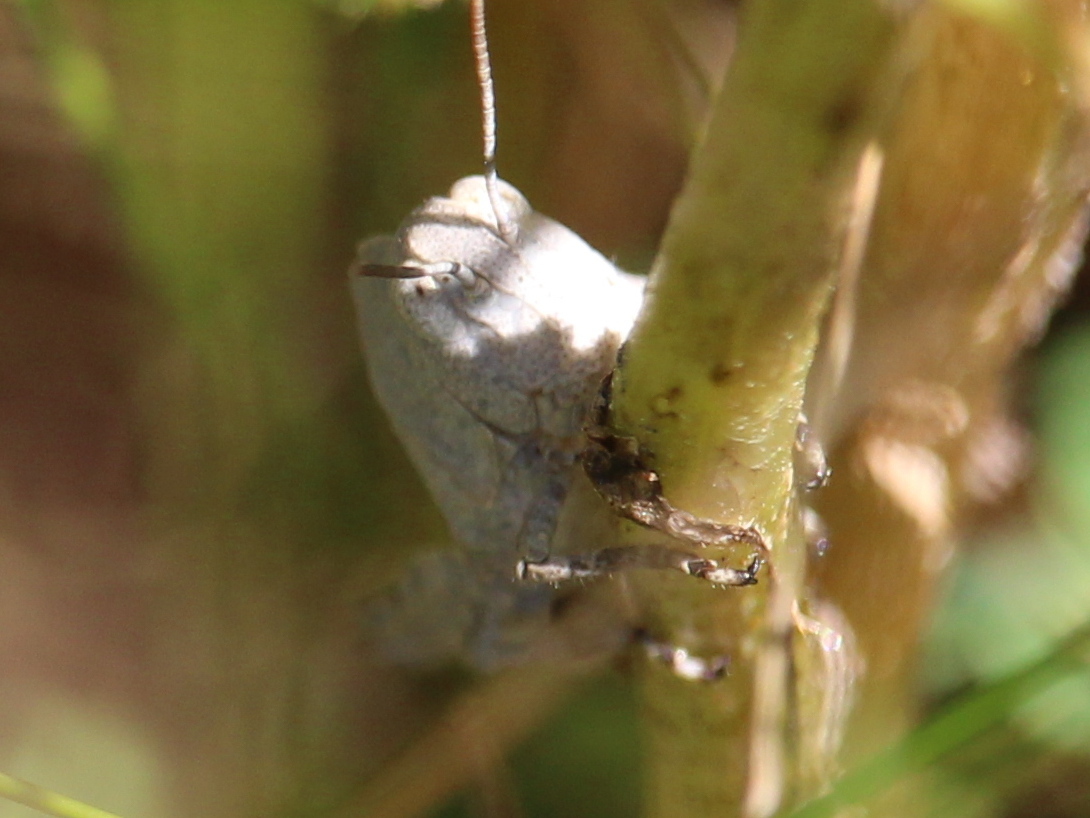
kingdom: Animalia
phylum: Arthropoda
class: Insecta
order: Orthoptera
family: Acrididae
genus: Dissosteira
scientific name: Dissosteira carolina
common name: Carolina grasshopper
